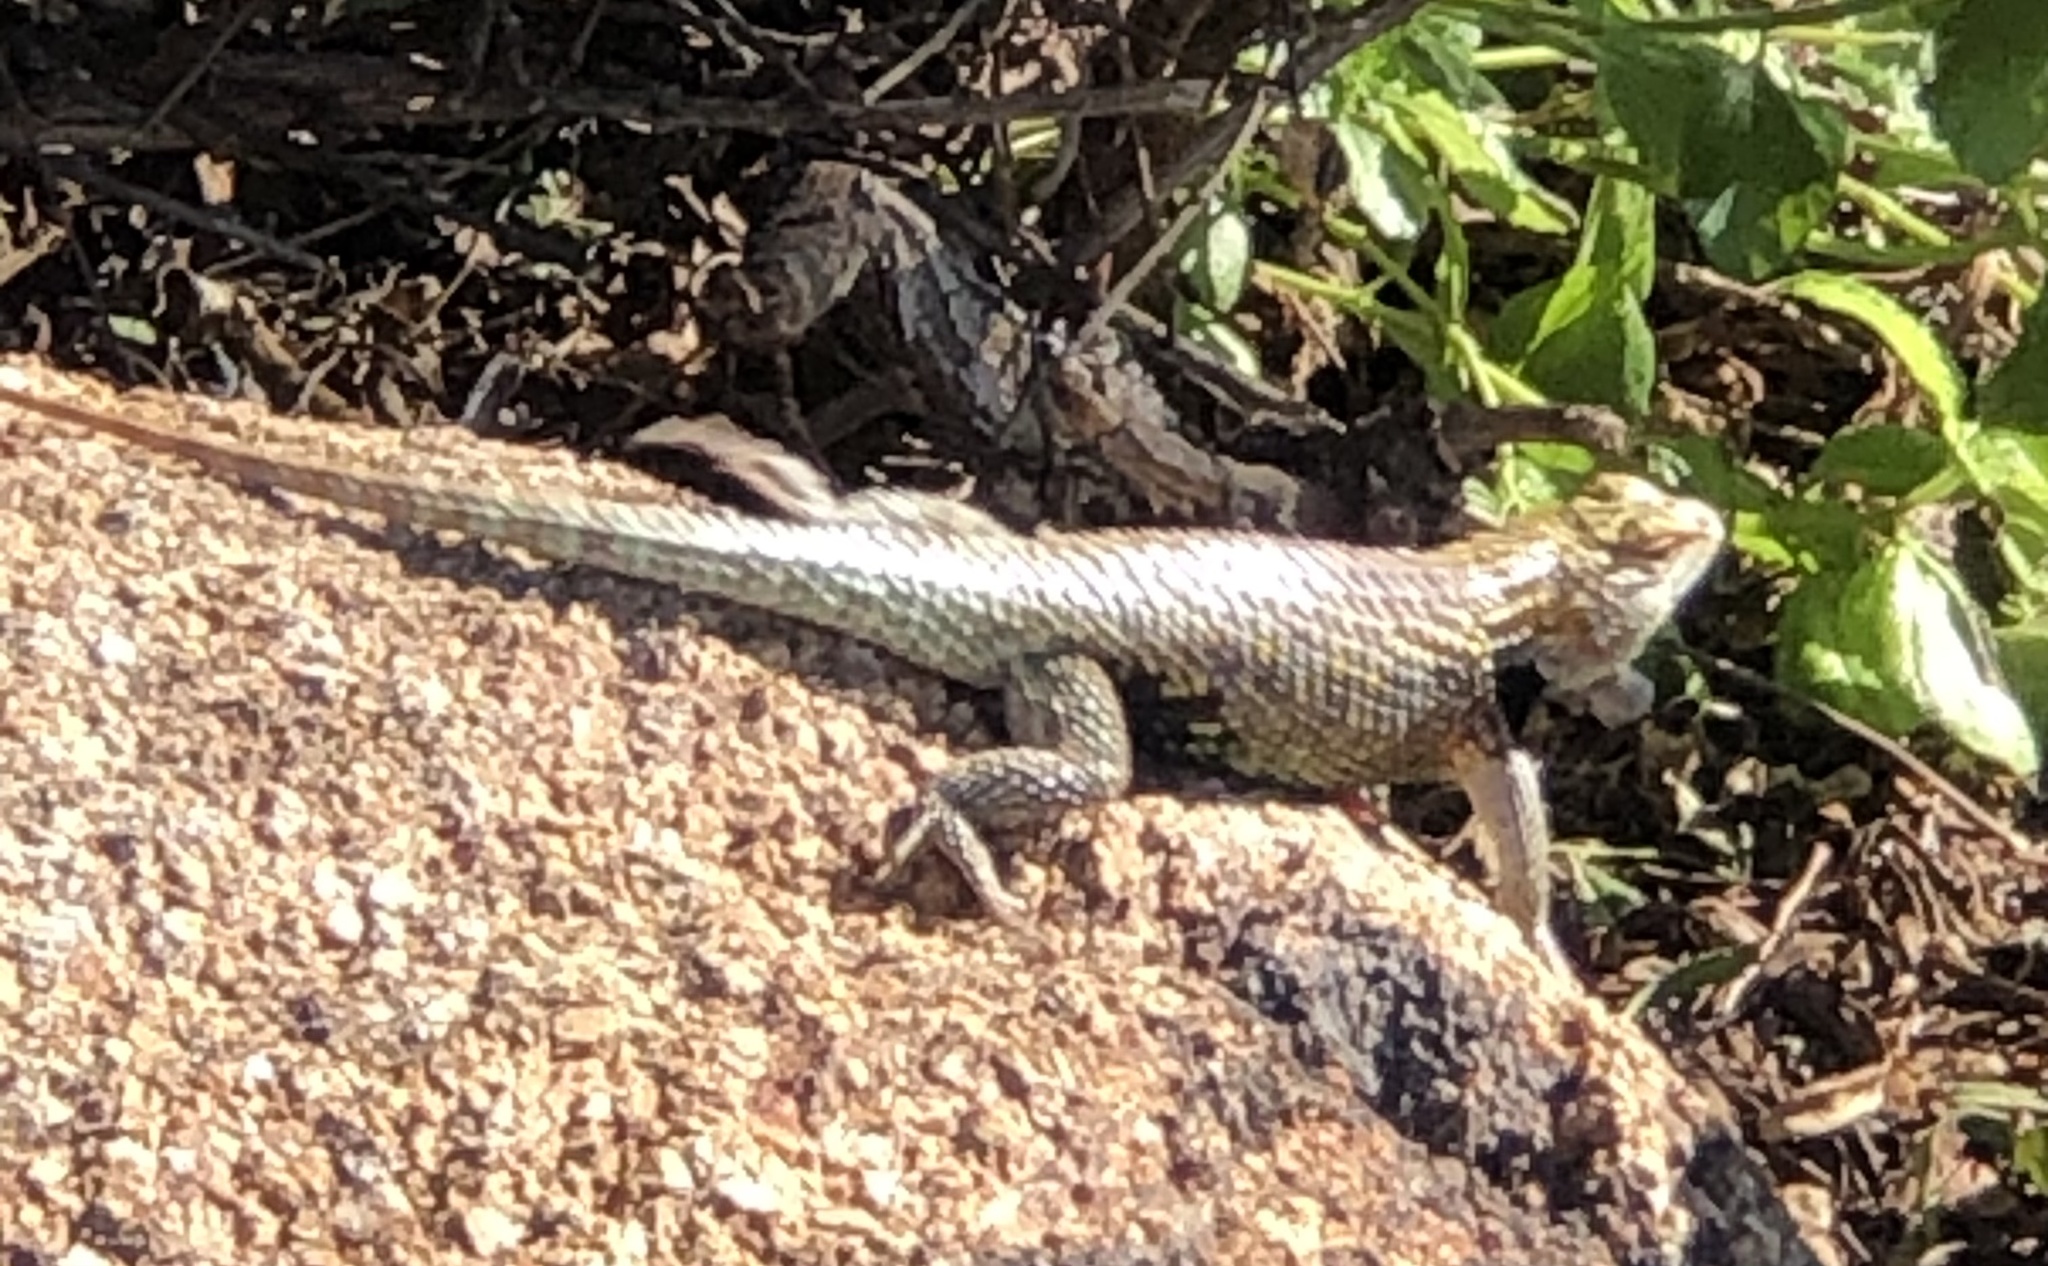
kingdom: Animalia
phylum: Chordata
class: Squamata
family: Phrynosomatidae
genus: Sceloporus
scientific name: Sceloporus magister
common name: Desert spiny lizard
